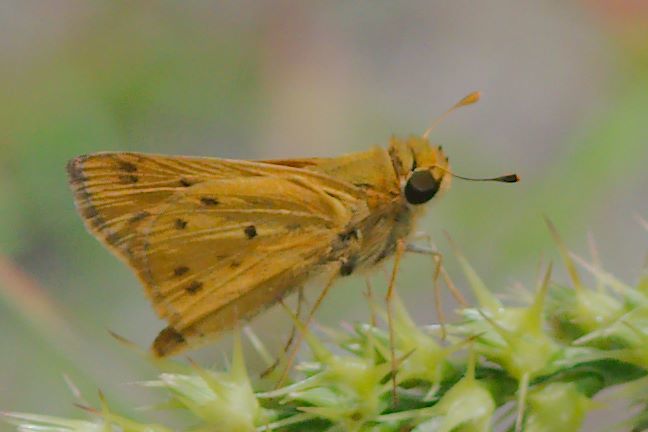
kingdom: Animalia
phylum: Arthropoda
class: Insecta
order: Lepidoptera
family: Hesperiidae
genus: Hylephila
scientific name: Hylephila phyleus
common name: Fiery skipper
